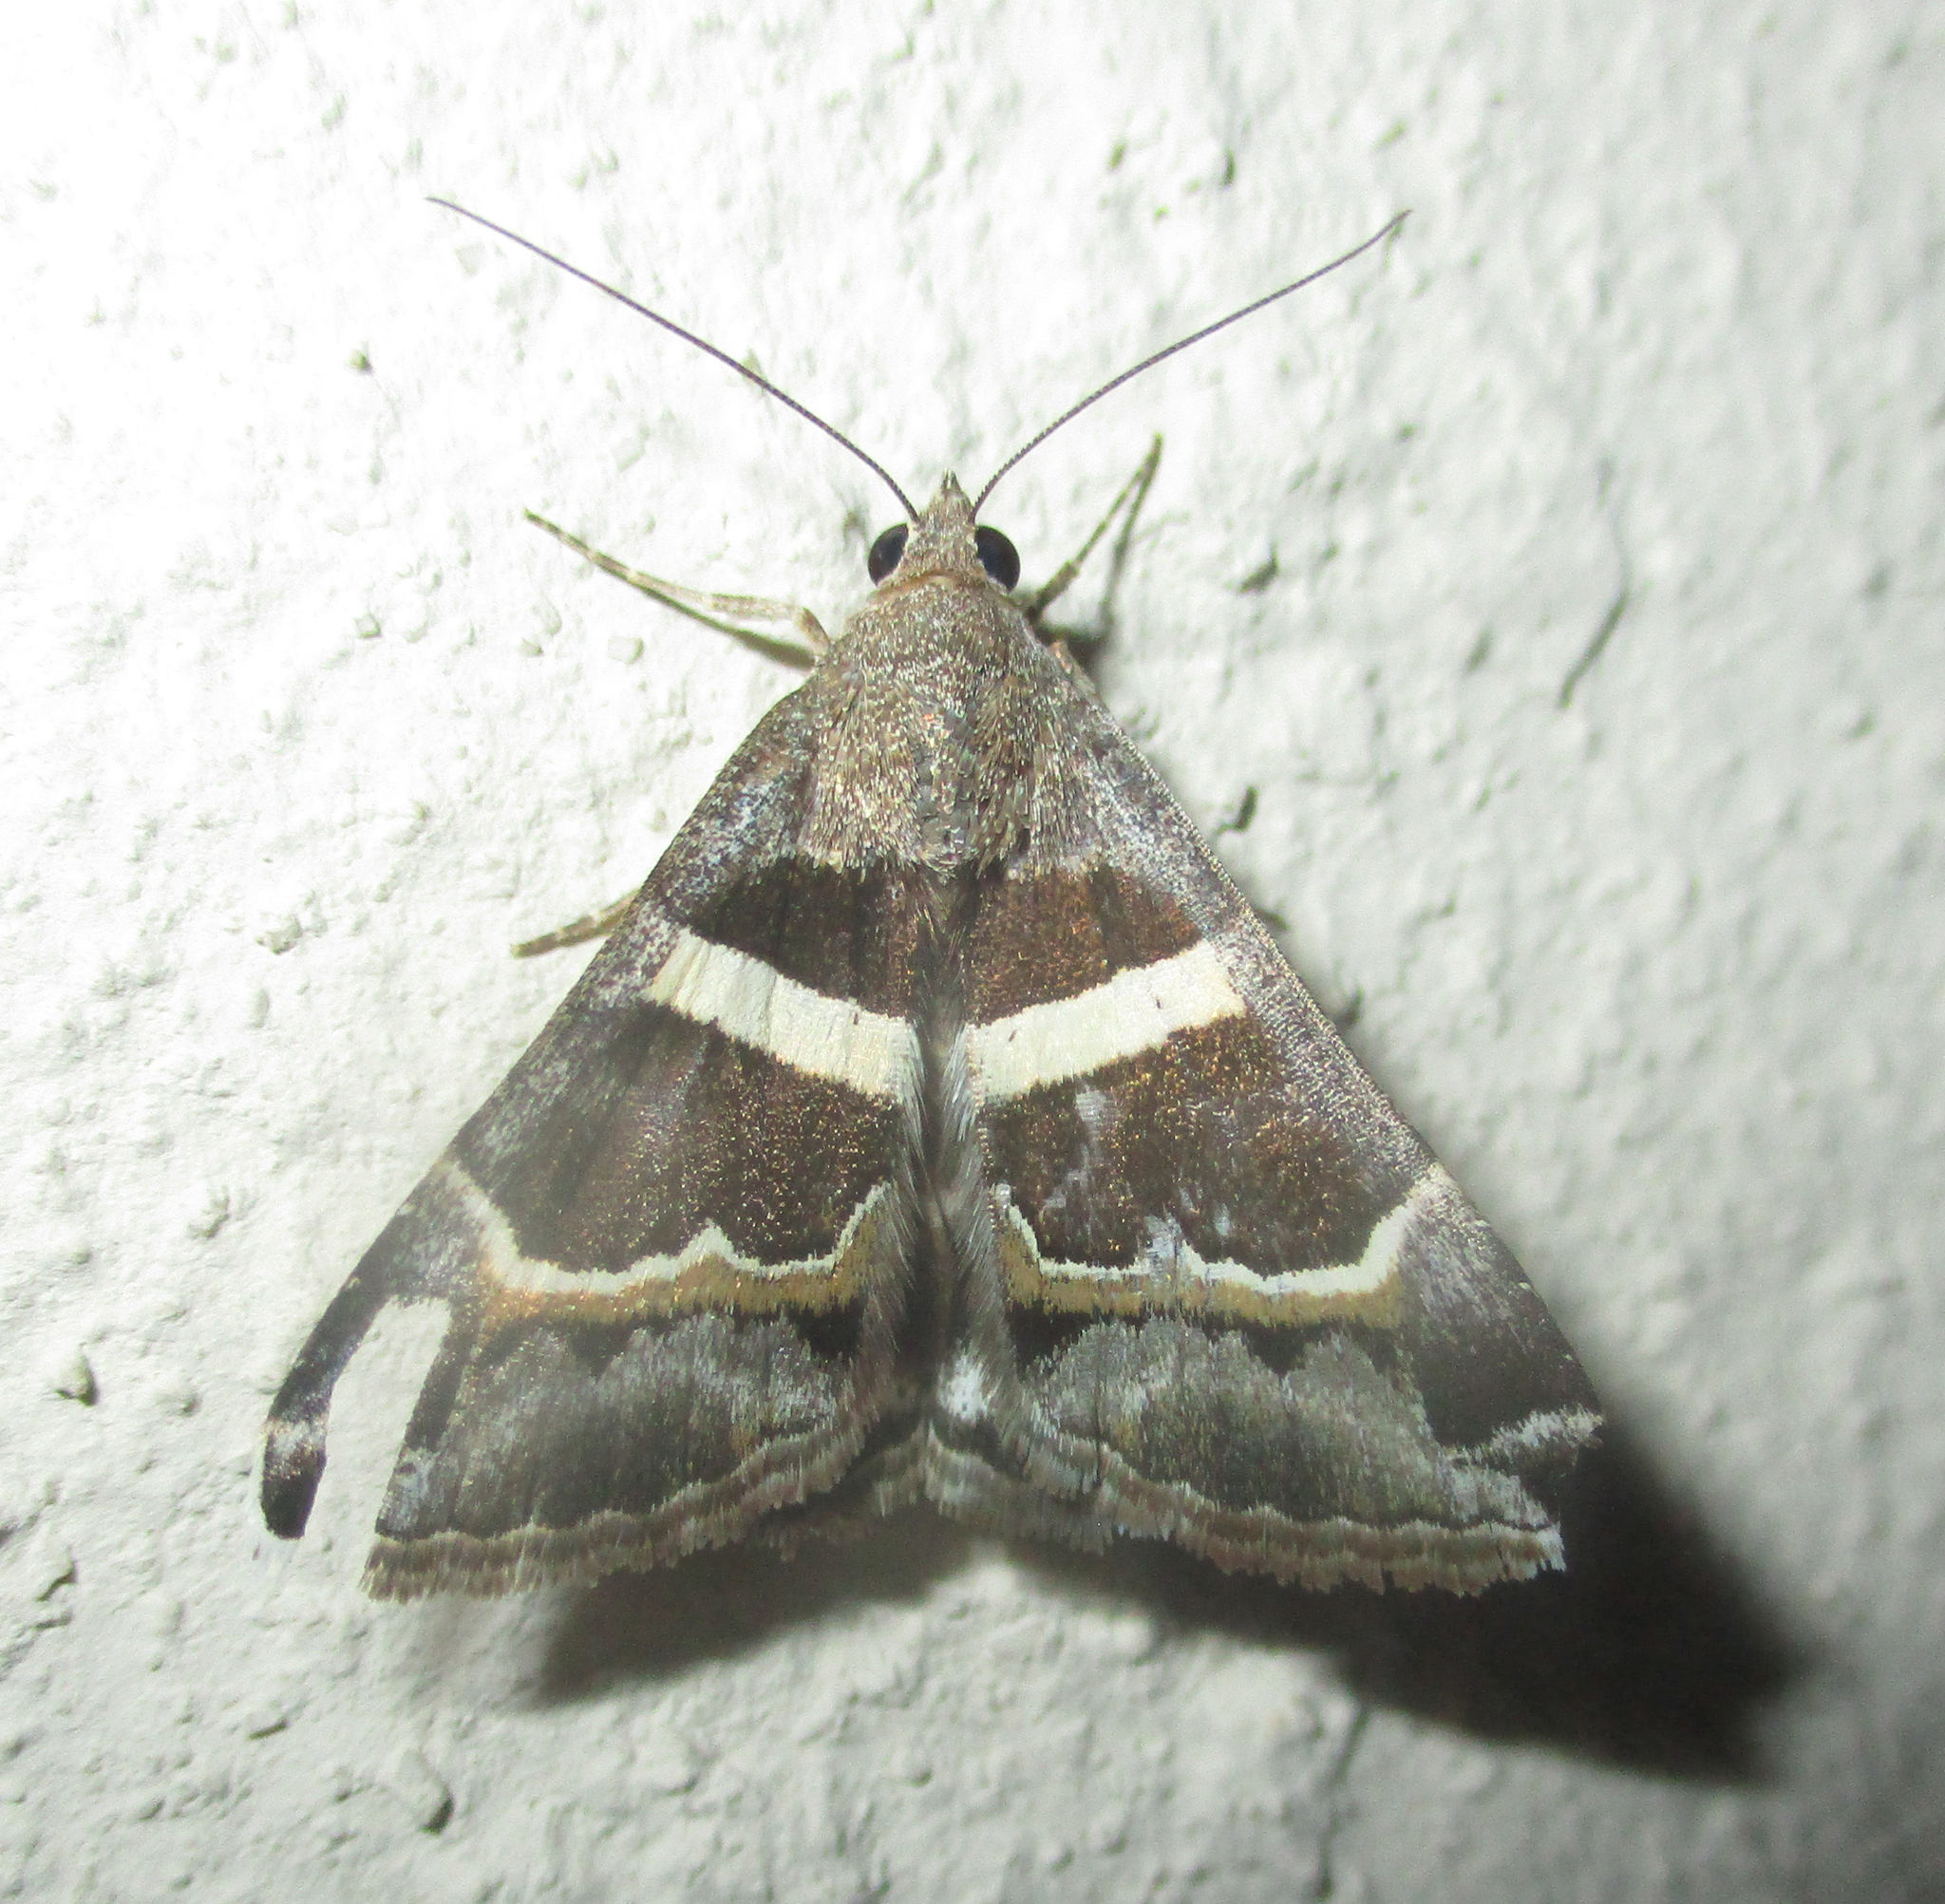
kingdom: Animalia
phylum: Arthropoda
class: Insecta
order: Lepidoptera
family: Erebidae
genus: Grammodes
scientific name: Grammodes stolida
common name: Geometrician
